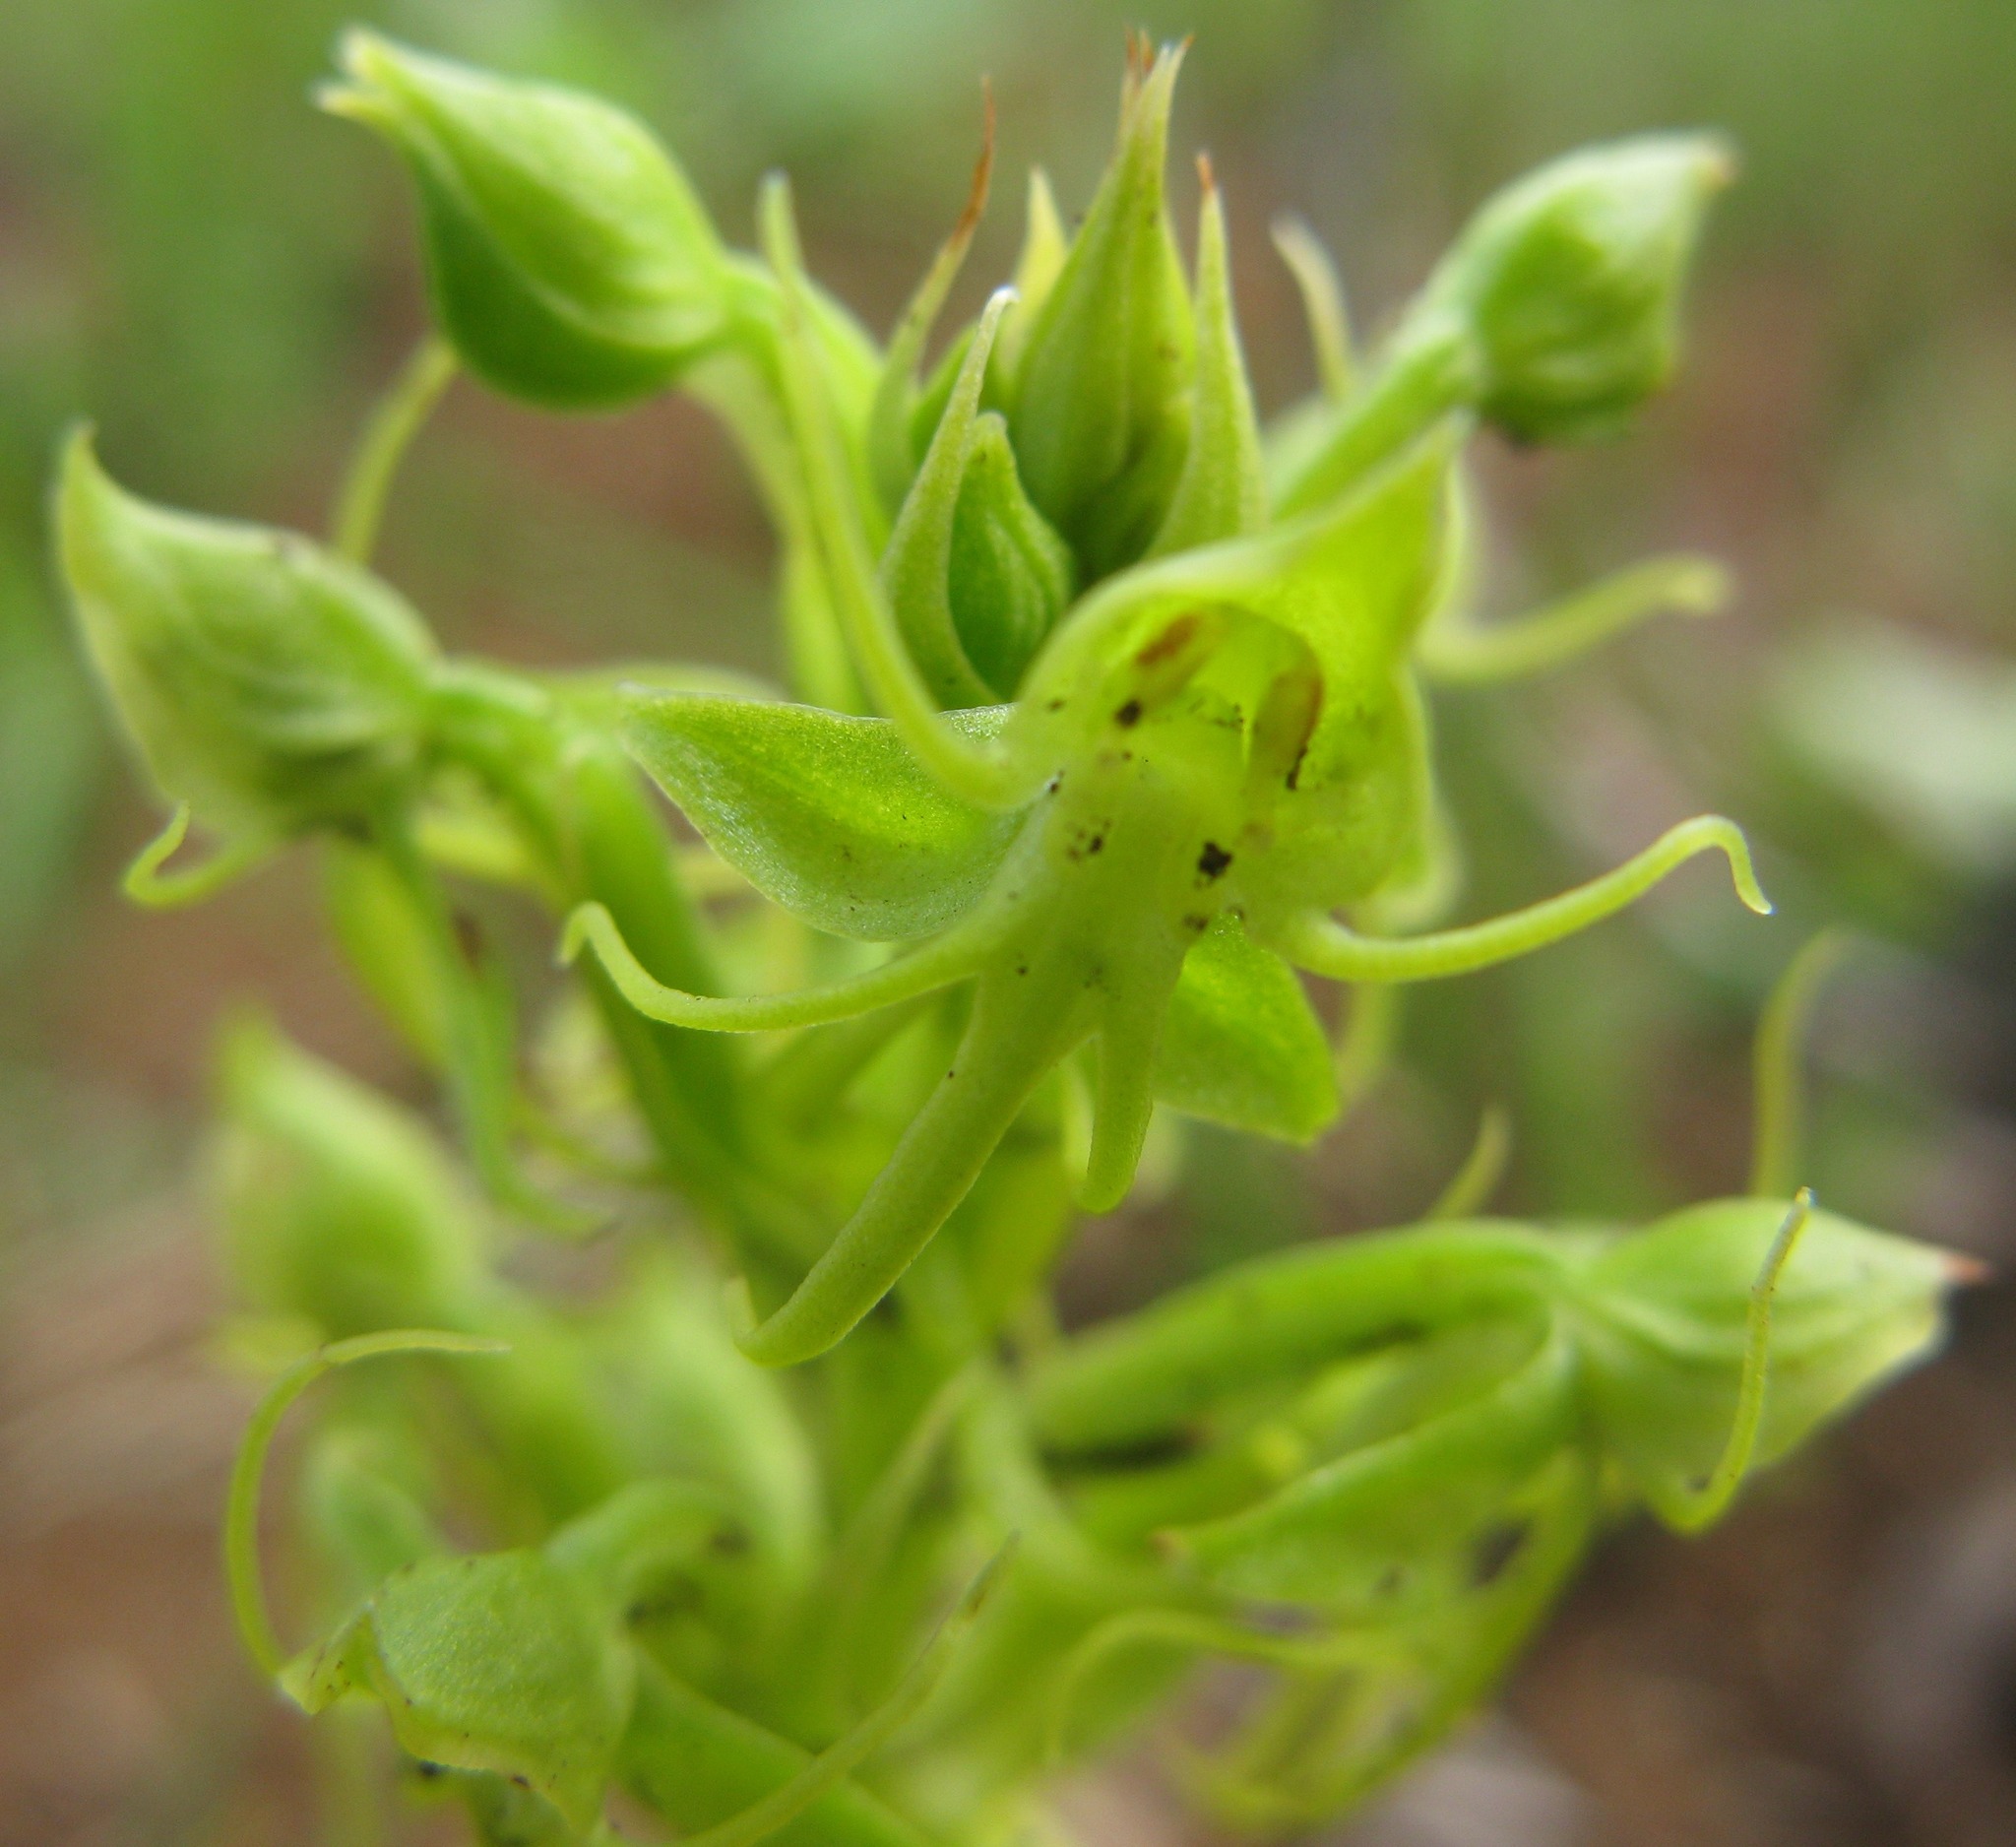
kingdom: Plantae
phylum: Tracheophyta
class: Liliopsida
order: Asparagales
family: Orchidaceae
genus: Habenaria
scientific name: Habenaria lithophila
